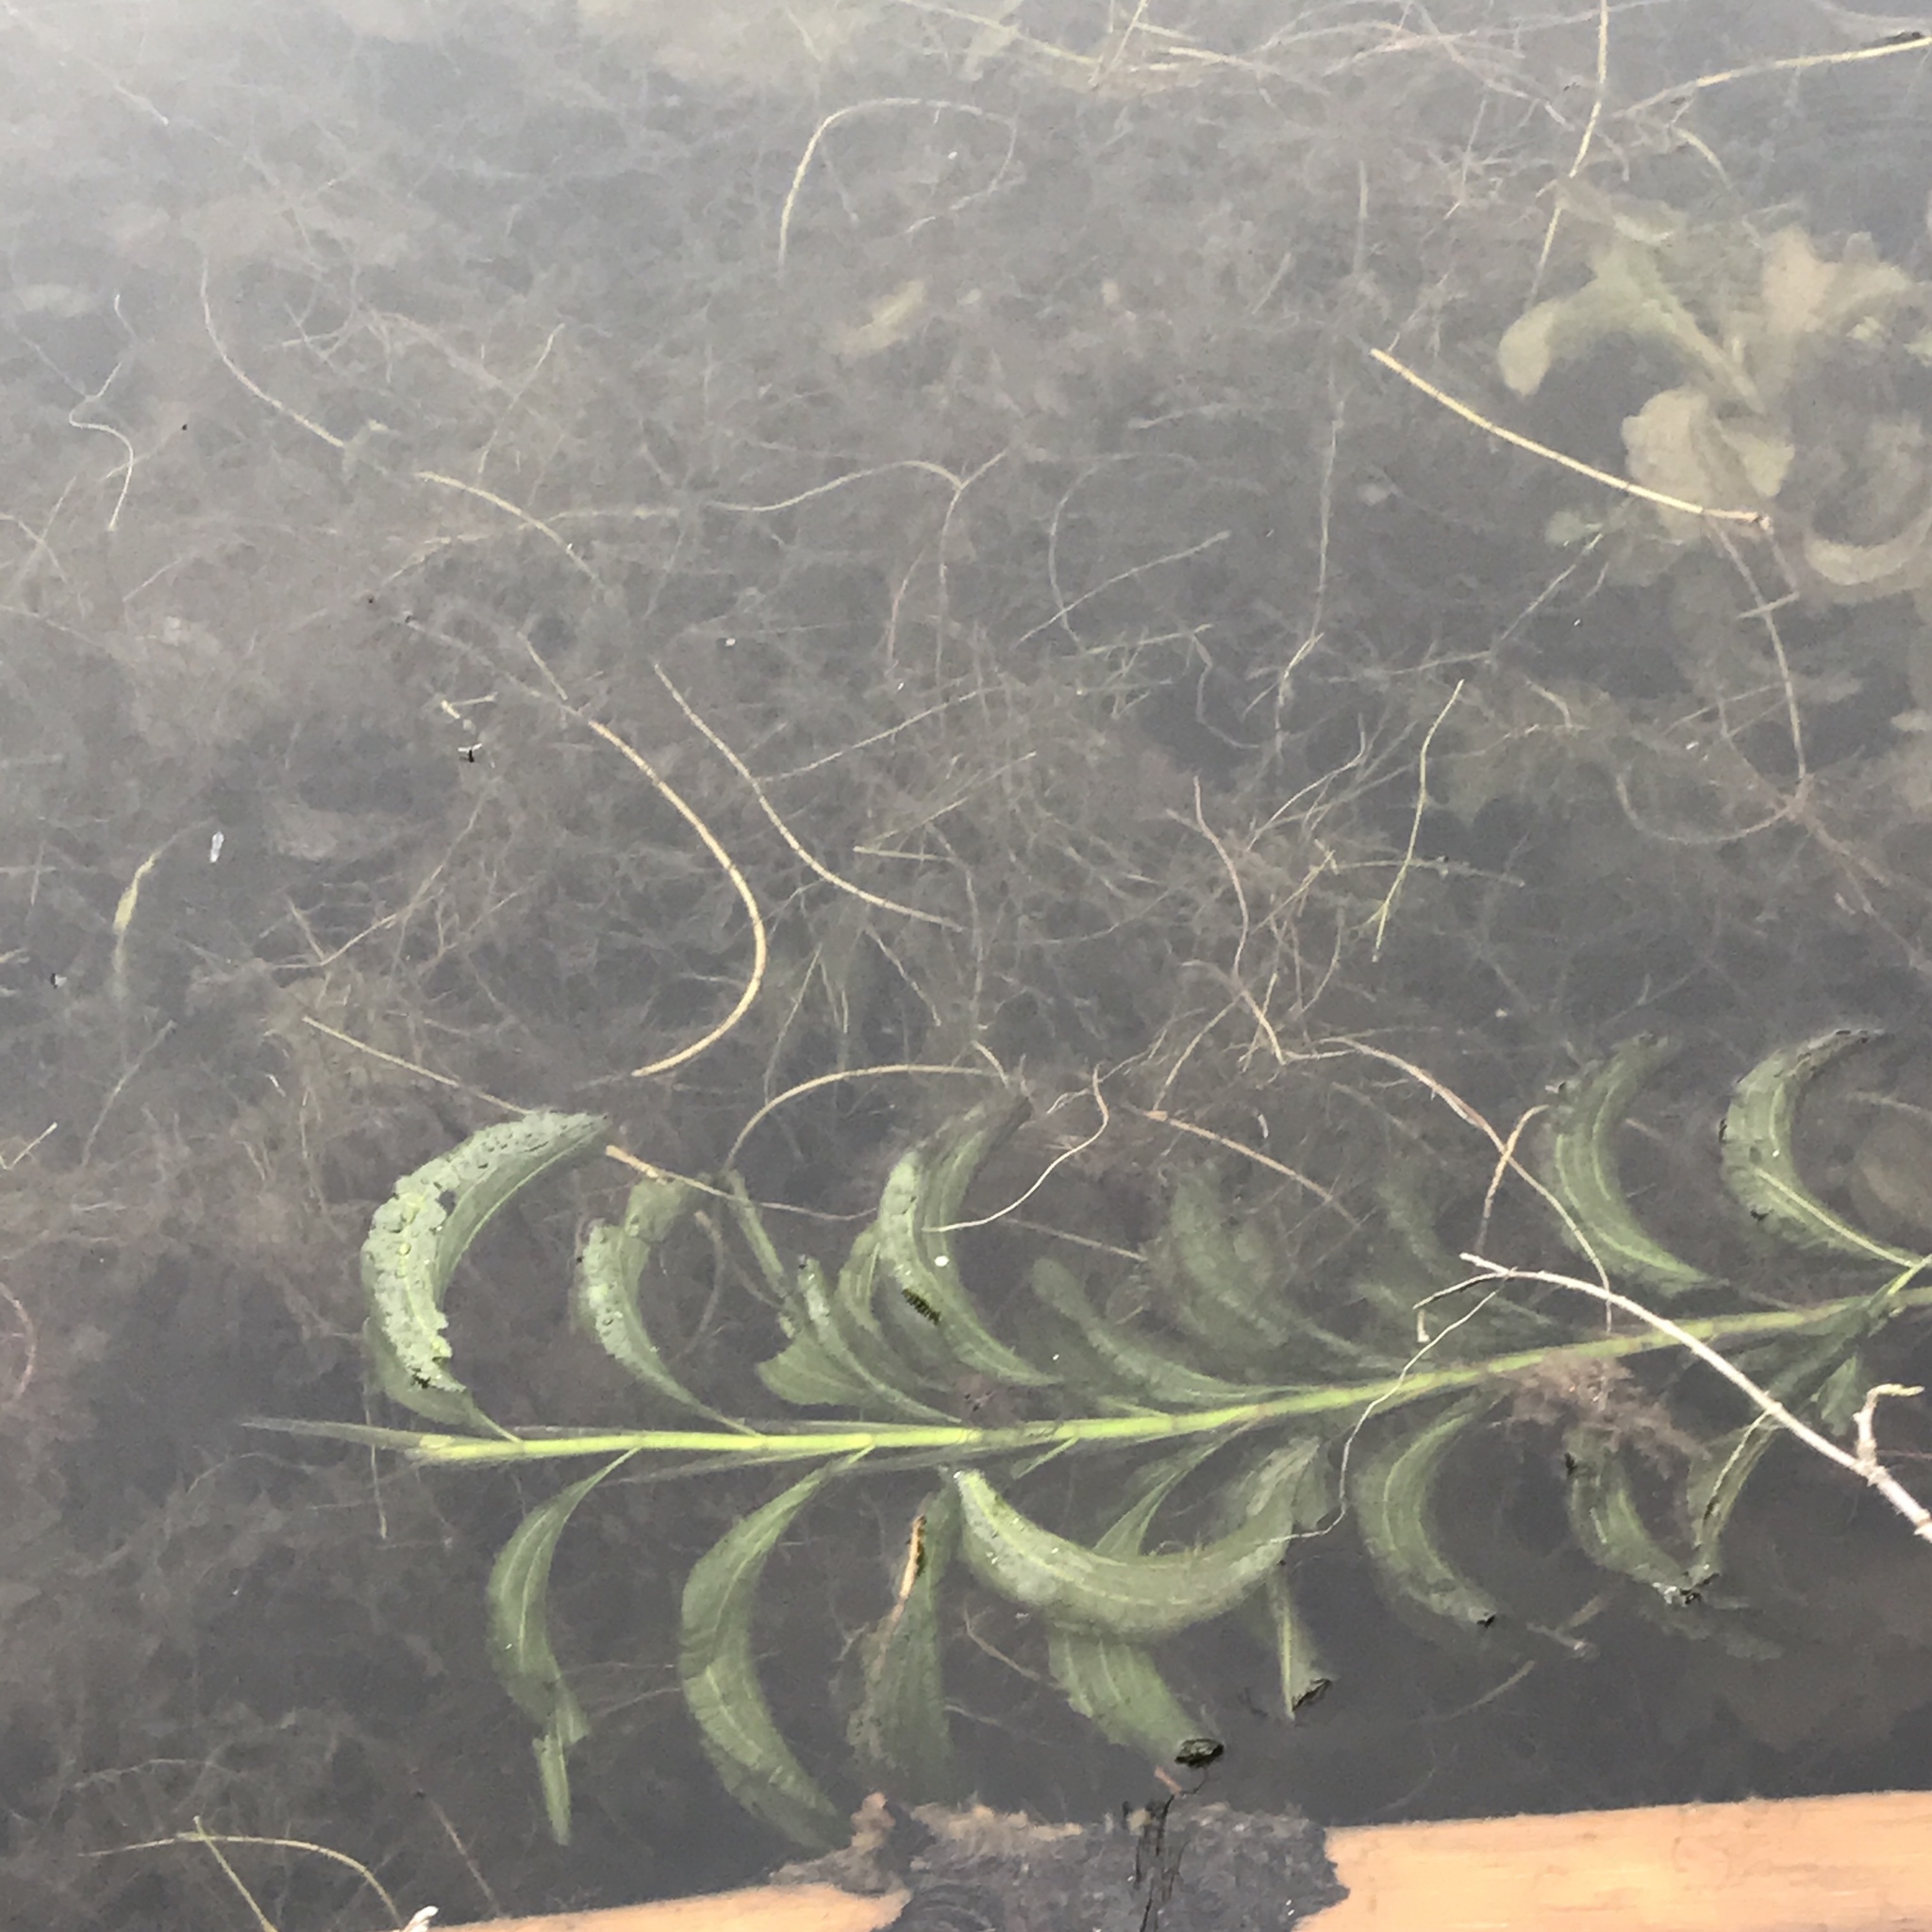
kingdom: Plantae
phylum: Tracheophyta
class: Liliopsida
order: Alismatales
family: Potamogetonaceae
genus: Potamogeton
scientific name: Potamogeton amplifolius
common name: Broad-leaved pondweed
